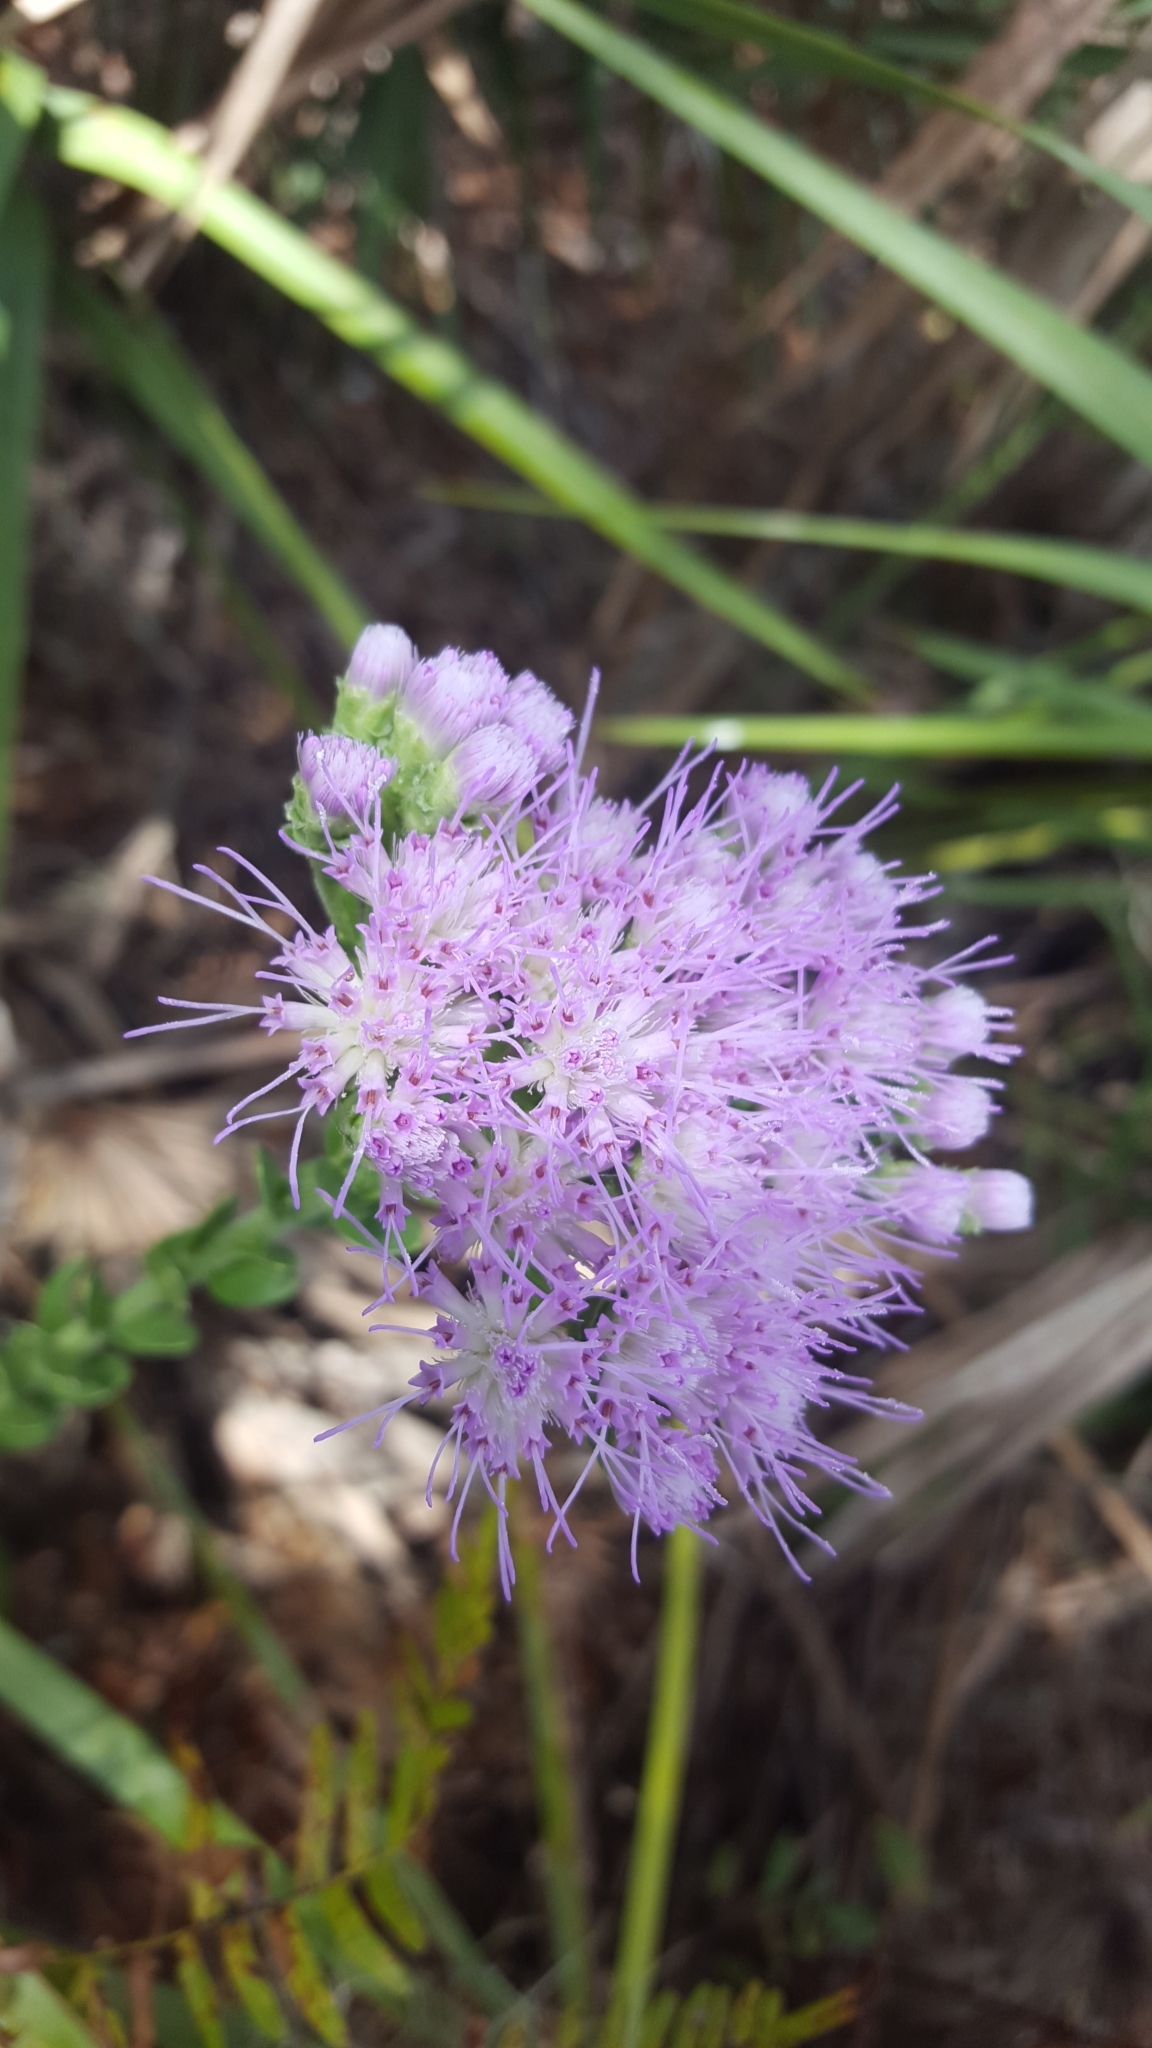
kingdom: Plantae
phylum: Tracheophyta
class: Magnoliopsida
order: Asterales
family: Asteraceae
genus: Carphephorus
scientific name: Carphephorus corymbosus
